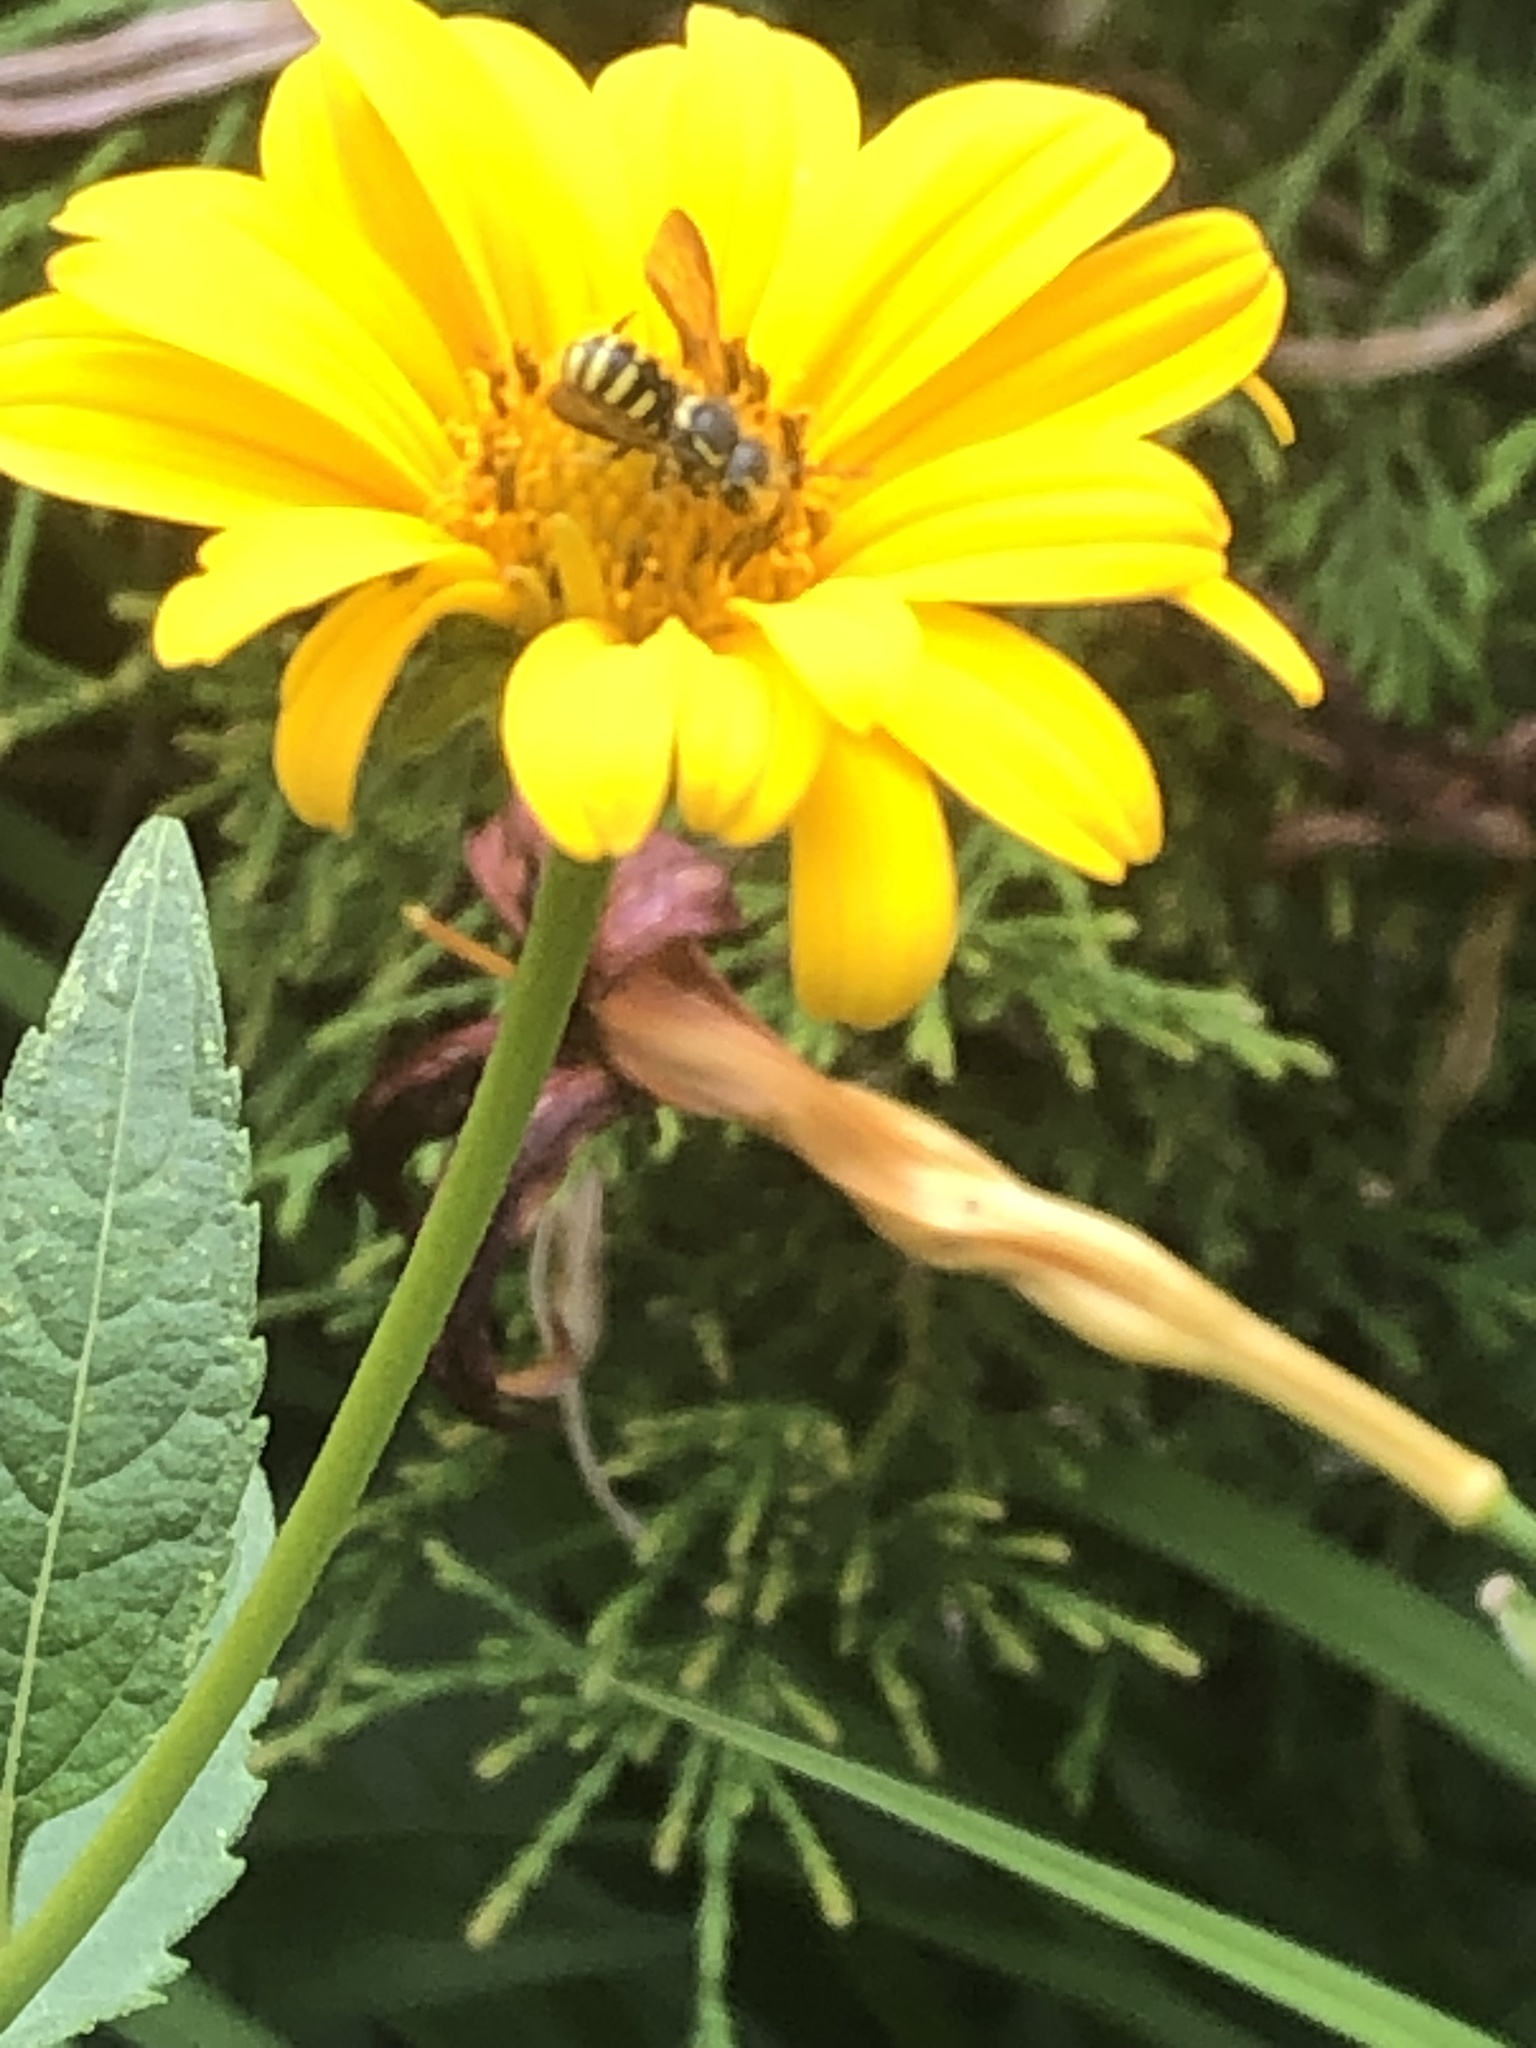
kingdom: Animalia
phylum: Arthropoda
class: Insecta
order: Hymenoptera
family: Megachilidae
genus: Paranthidium
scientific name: Paranthidium jugatorium
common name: Sunflower burrowing-resin bee
